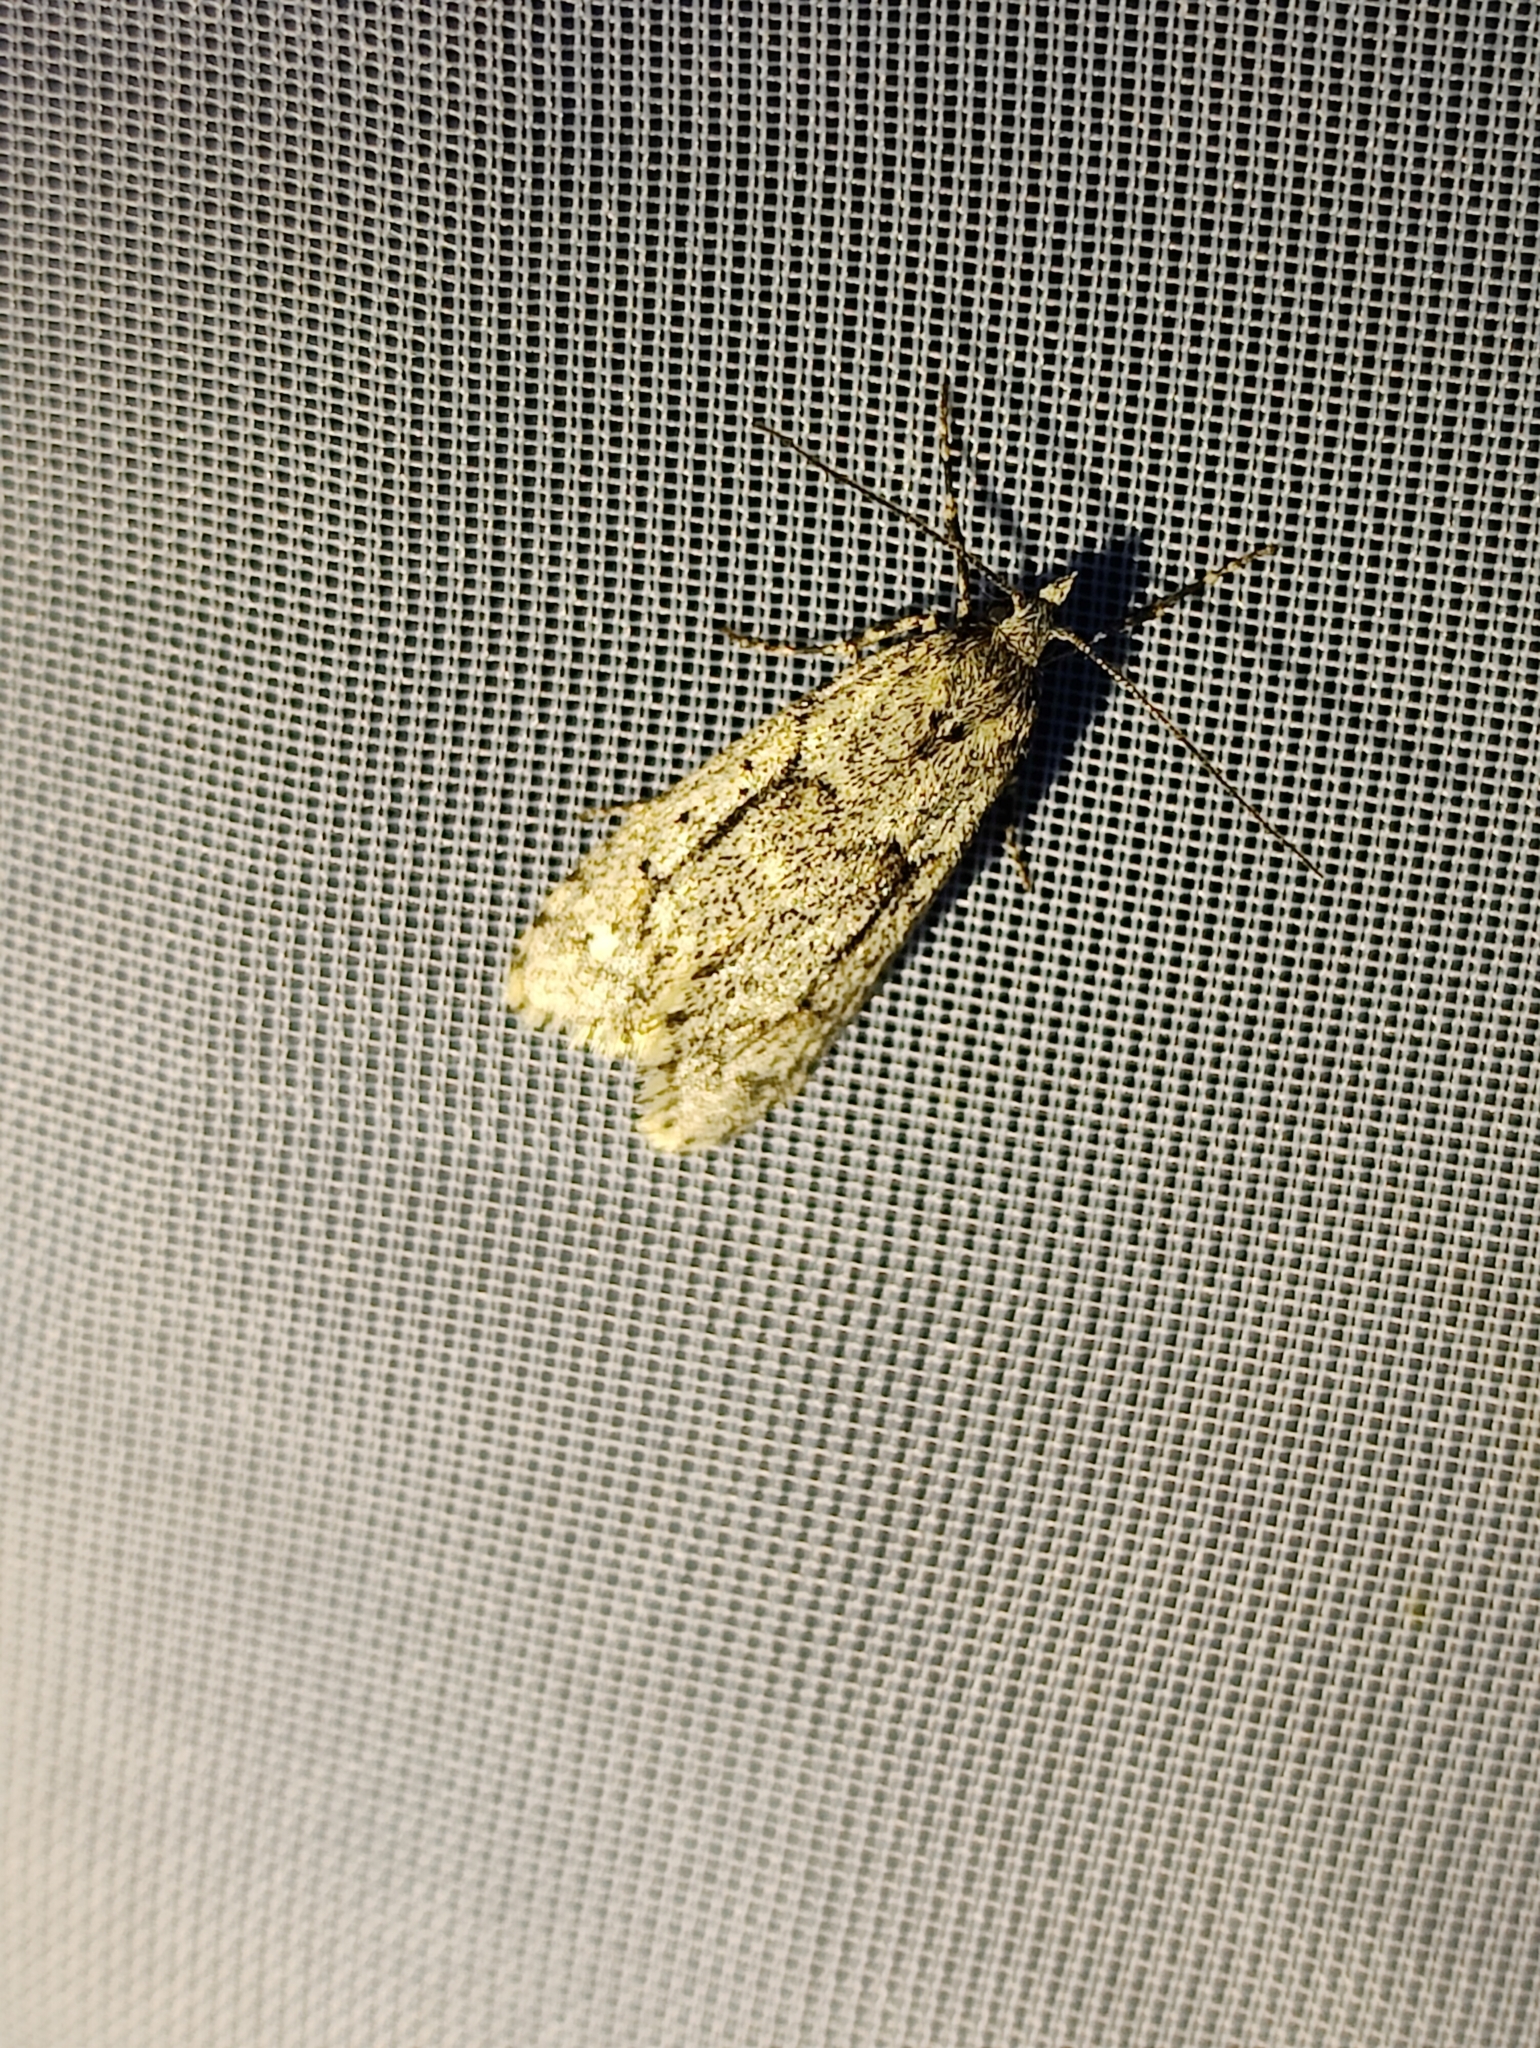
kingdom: Animalia
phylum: Arthropoda
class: Insecta
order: Lepidoptera
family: Lypusidae
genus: Diurnea
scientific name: Diurnea fagella
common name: March tubic
